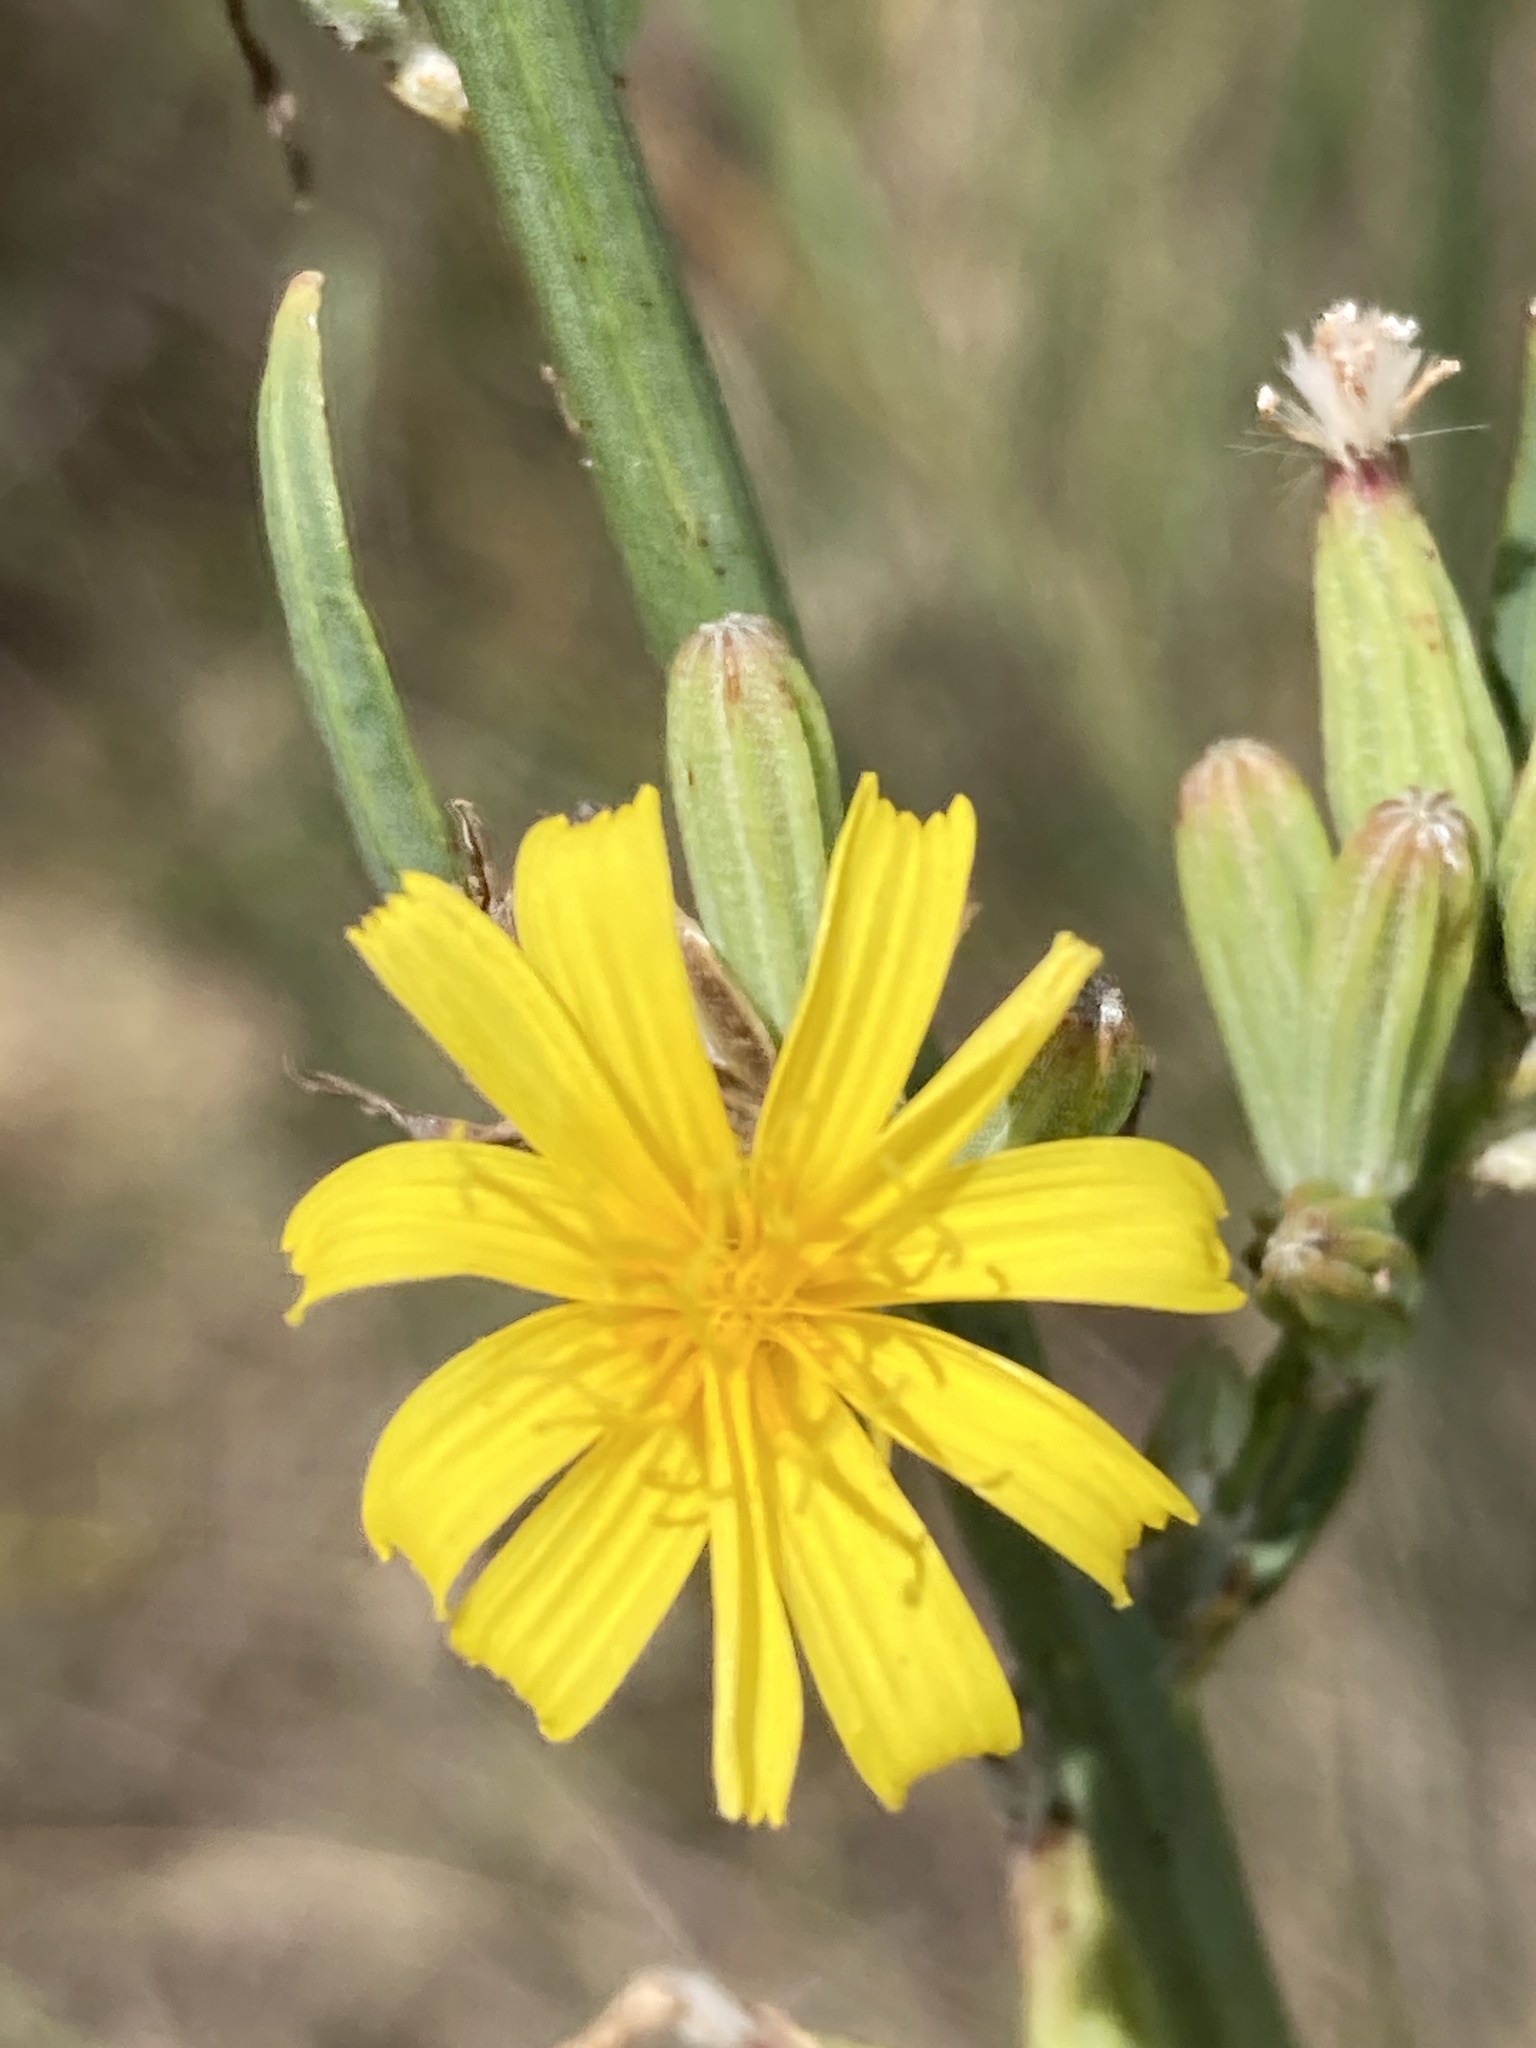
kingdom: Plantae
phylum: Tracheophyta
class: Magnoliopsida
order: Asterales
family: Asteraceae
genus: Chondrilla
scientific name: Chondrilla juncea
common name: Skeleton weed
